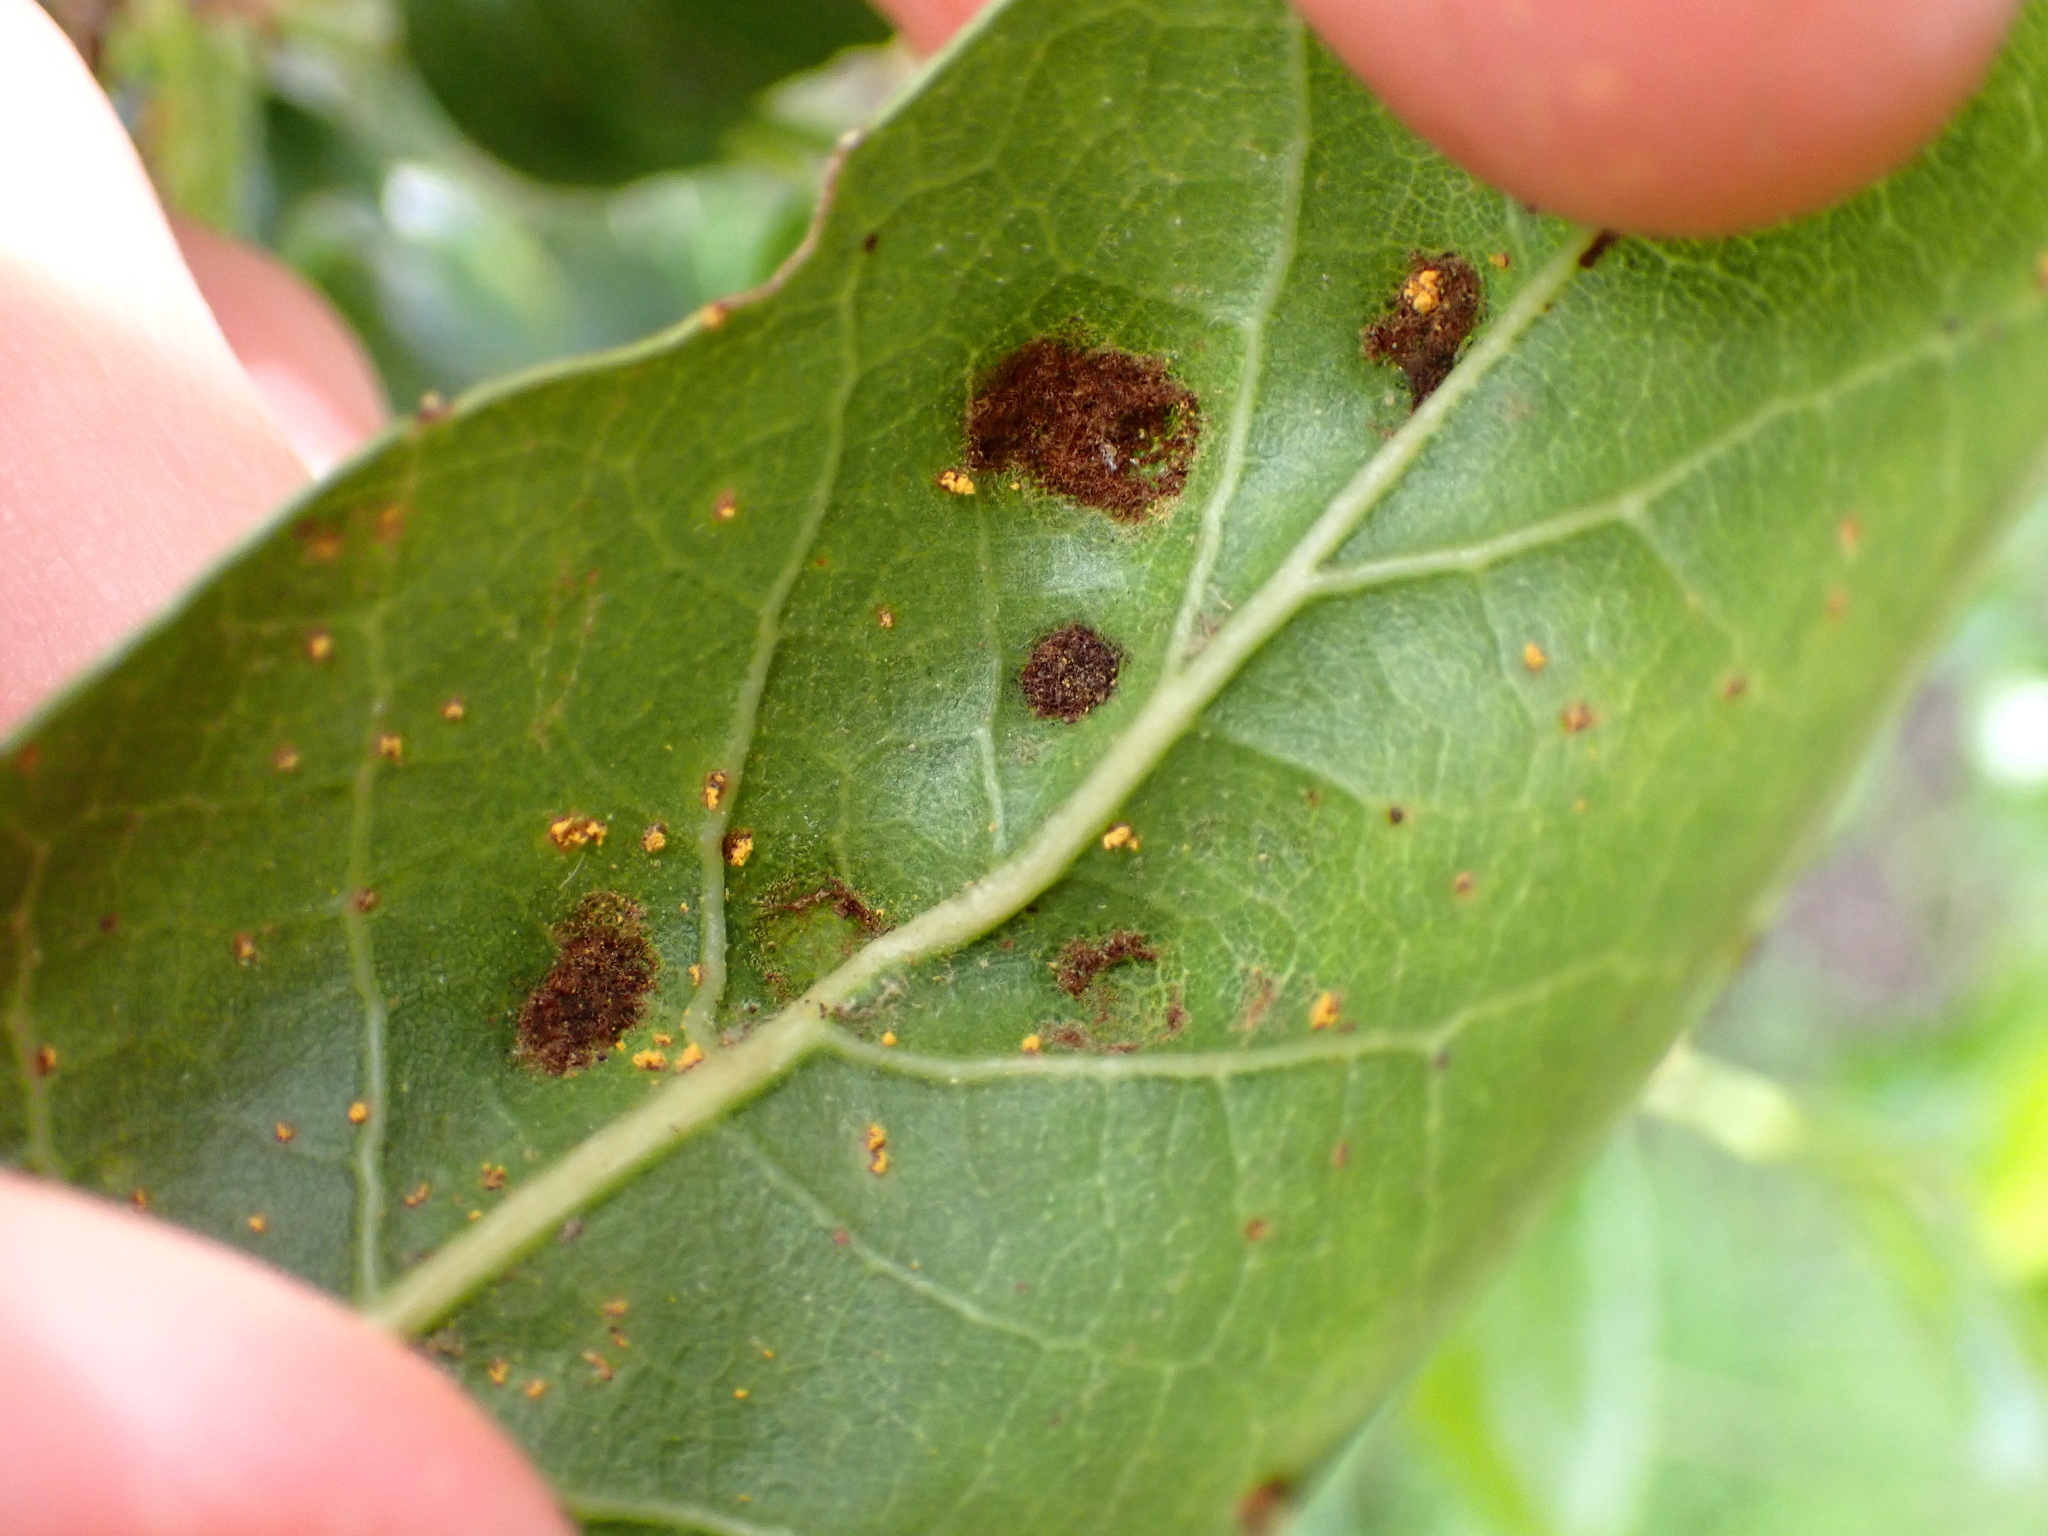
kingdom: Animalia
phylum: Arthropoda
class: Arachnida
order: Trombidiformes
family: Eriophyidae
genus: Aceria
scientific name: Aceria
